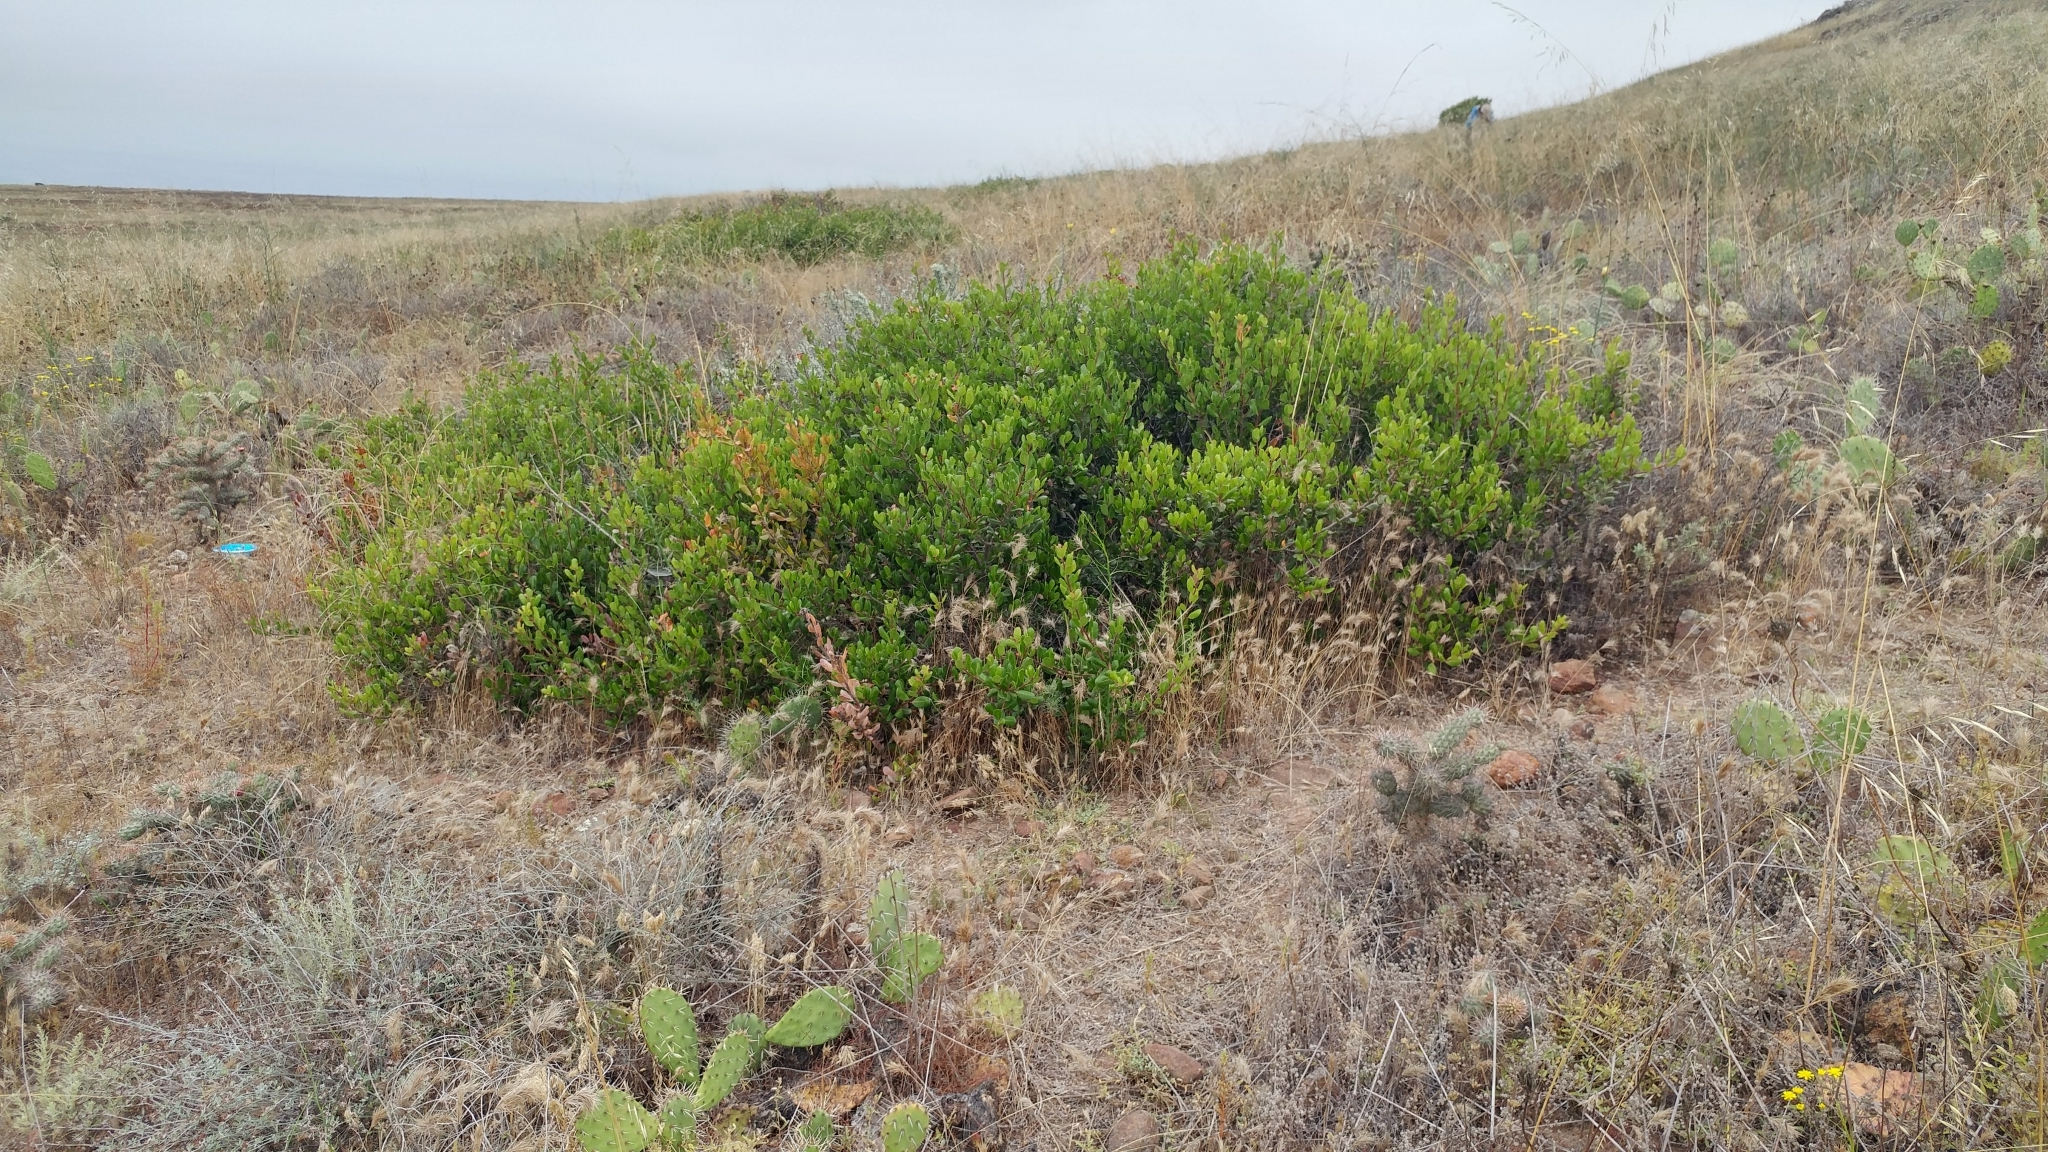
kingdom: Plantae
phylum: Tracheophyta
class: Magnoliopsida
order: Sapindales
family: Anacardiaceae
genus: Rhus
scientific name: Rhus integrifolia
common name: Lemonade sumac
